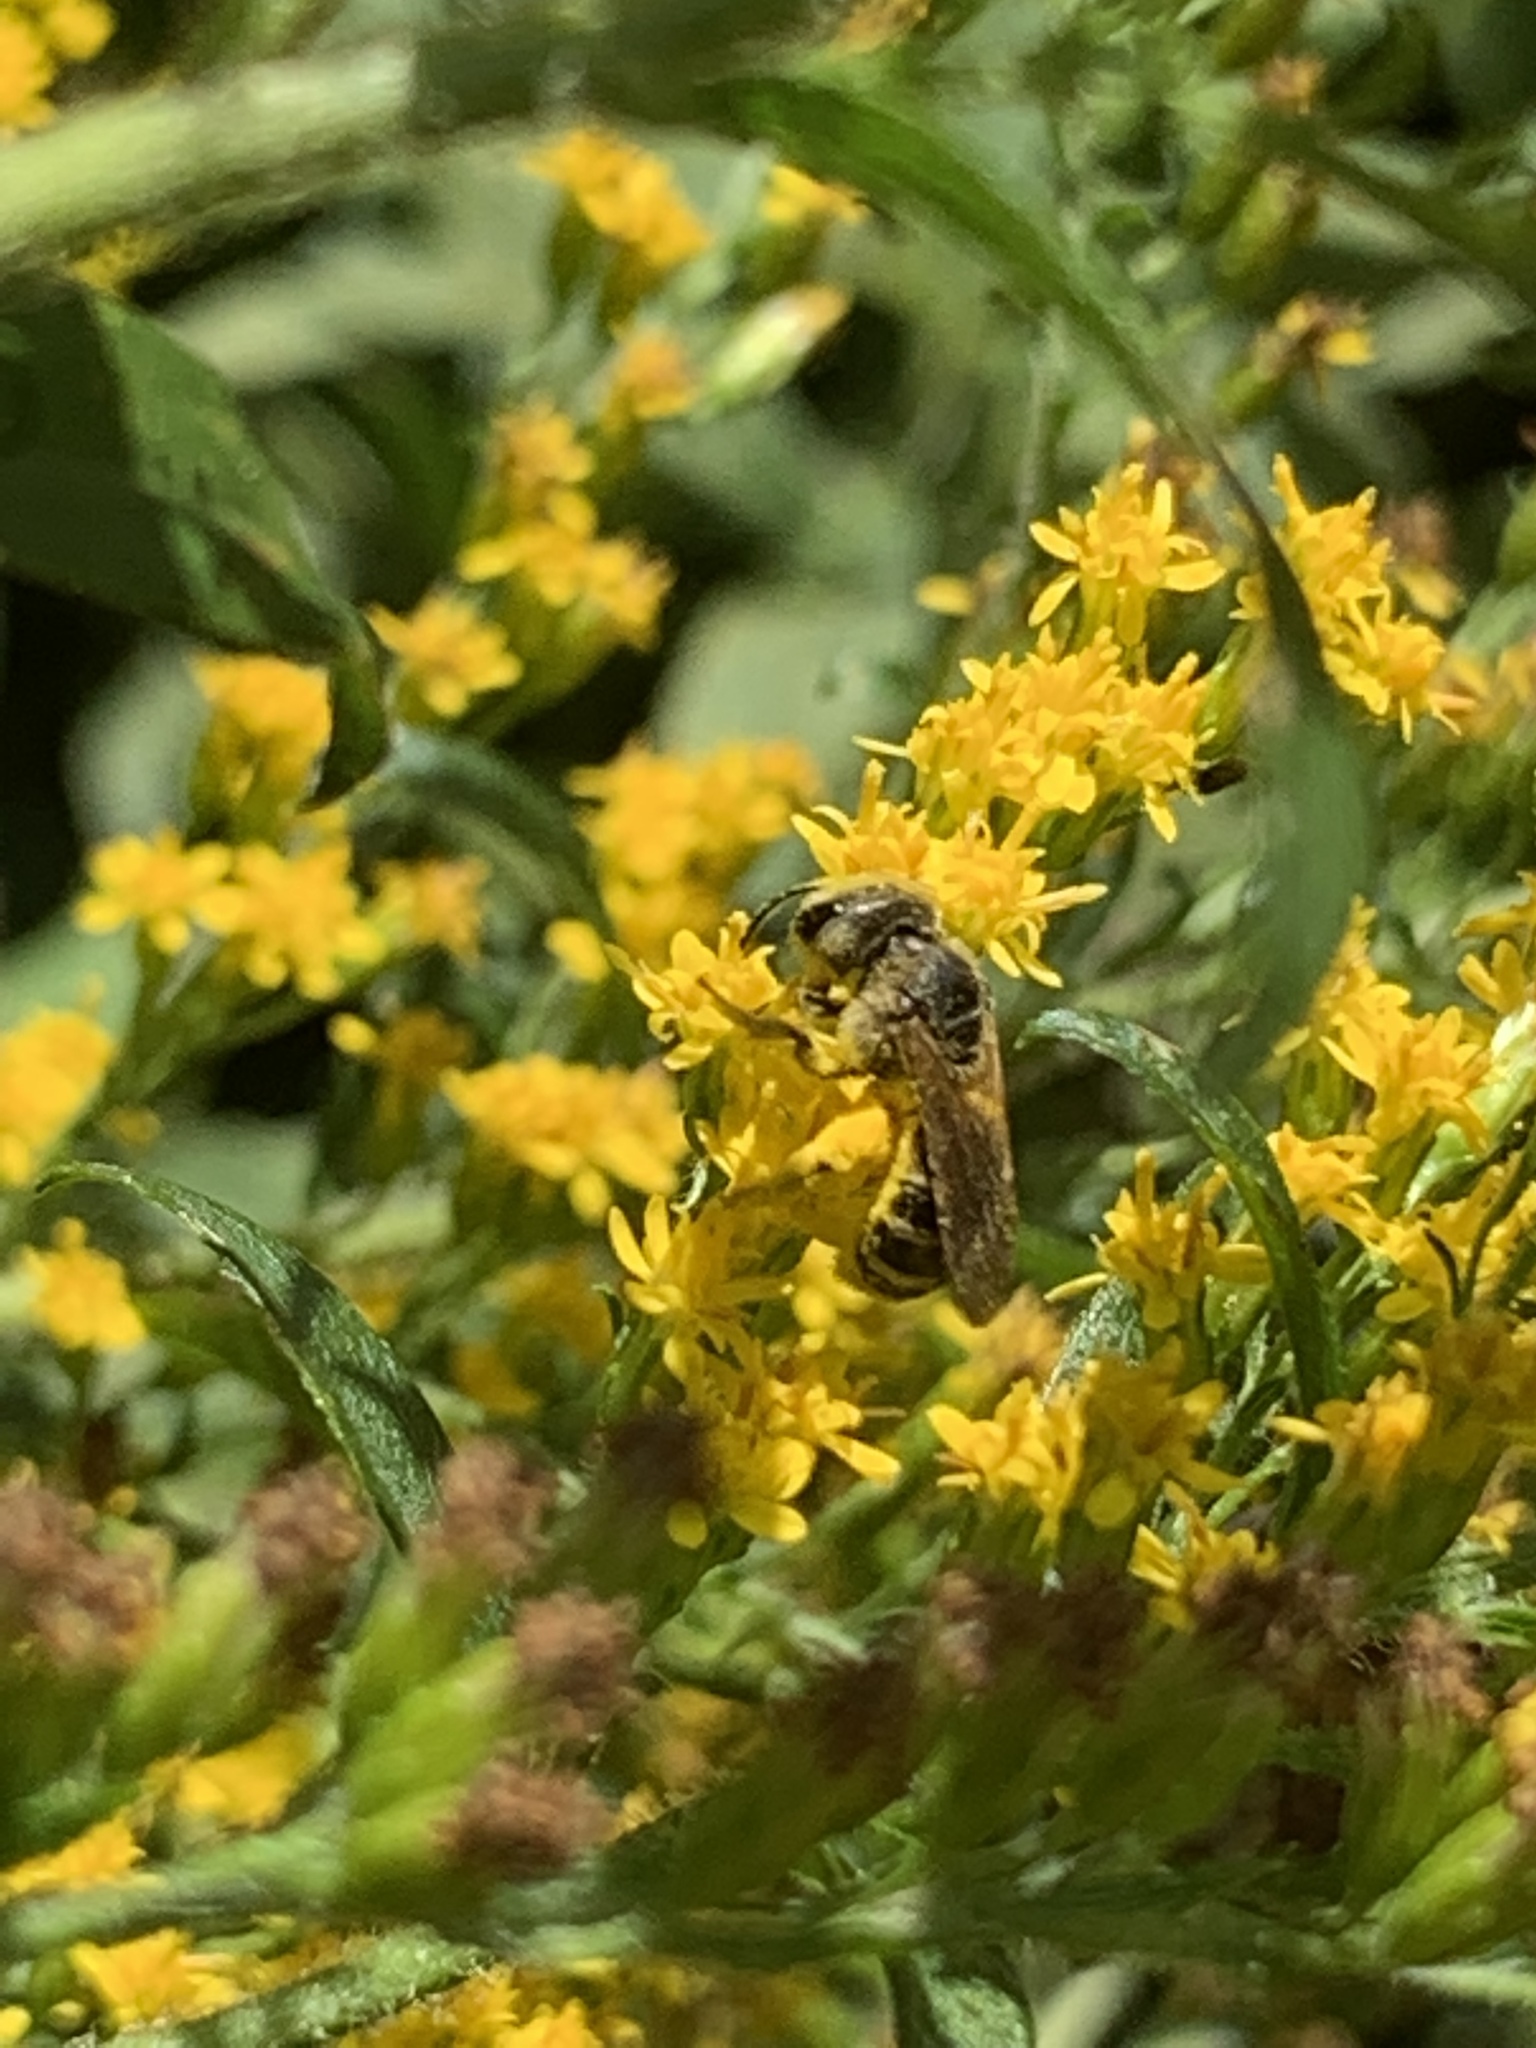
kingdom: Animalia
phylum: Arthropoda
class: Insecta
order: Hymenoptera
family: Halictidae
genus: Halictus
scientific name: Halictus ligatus
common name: Ligated furrow bee
